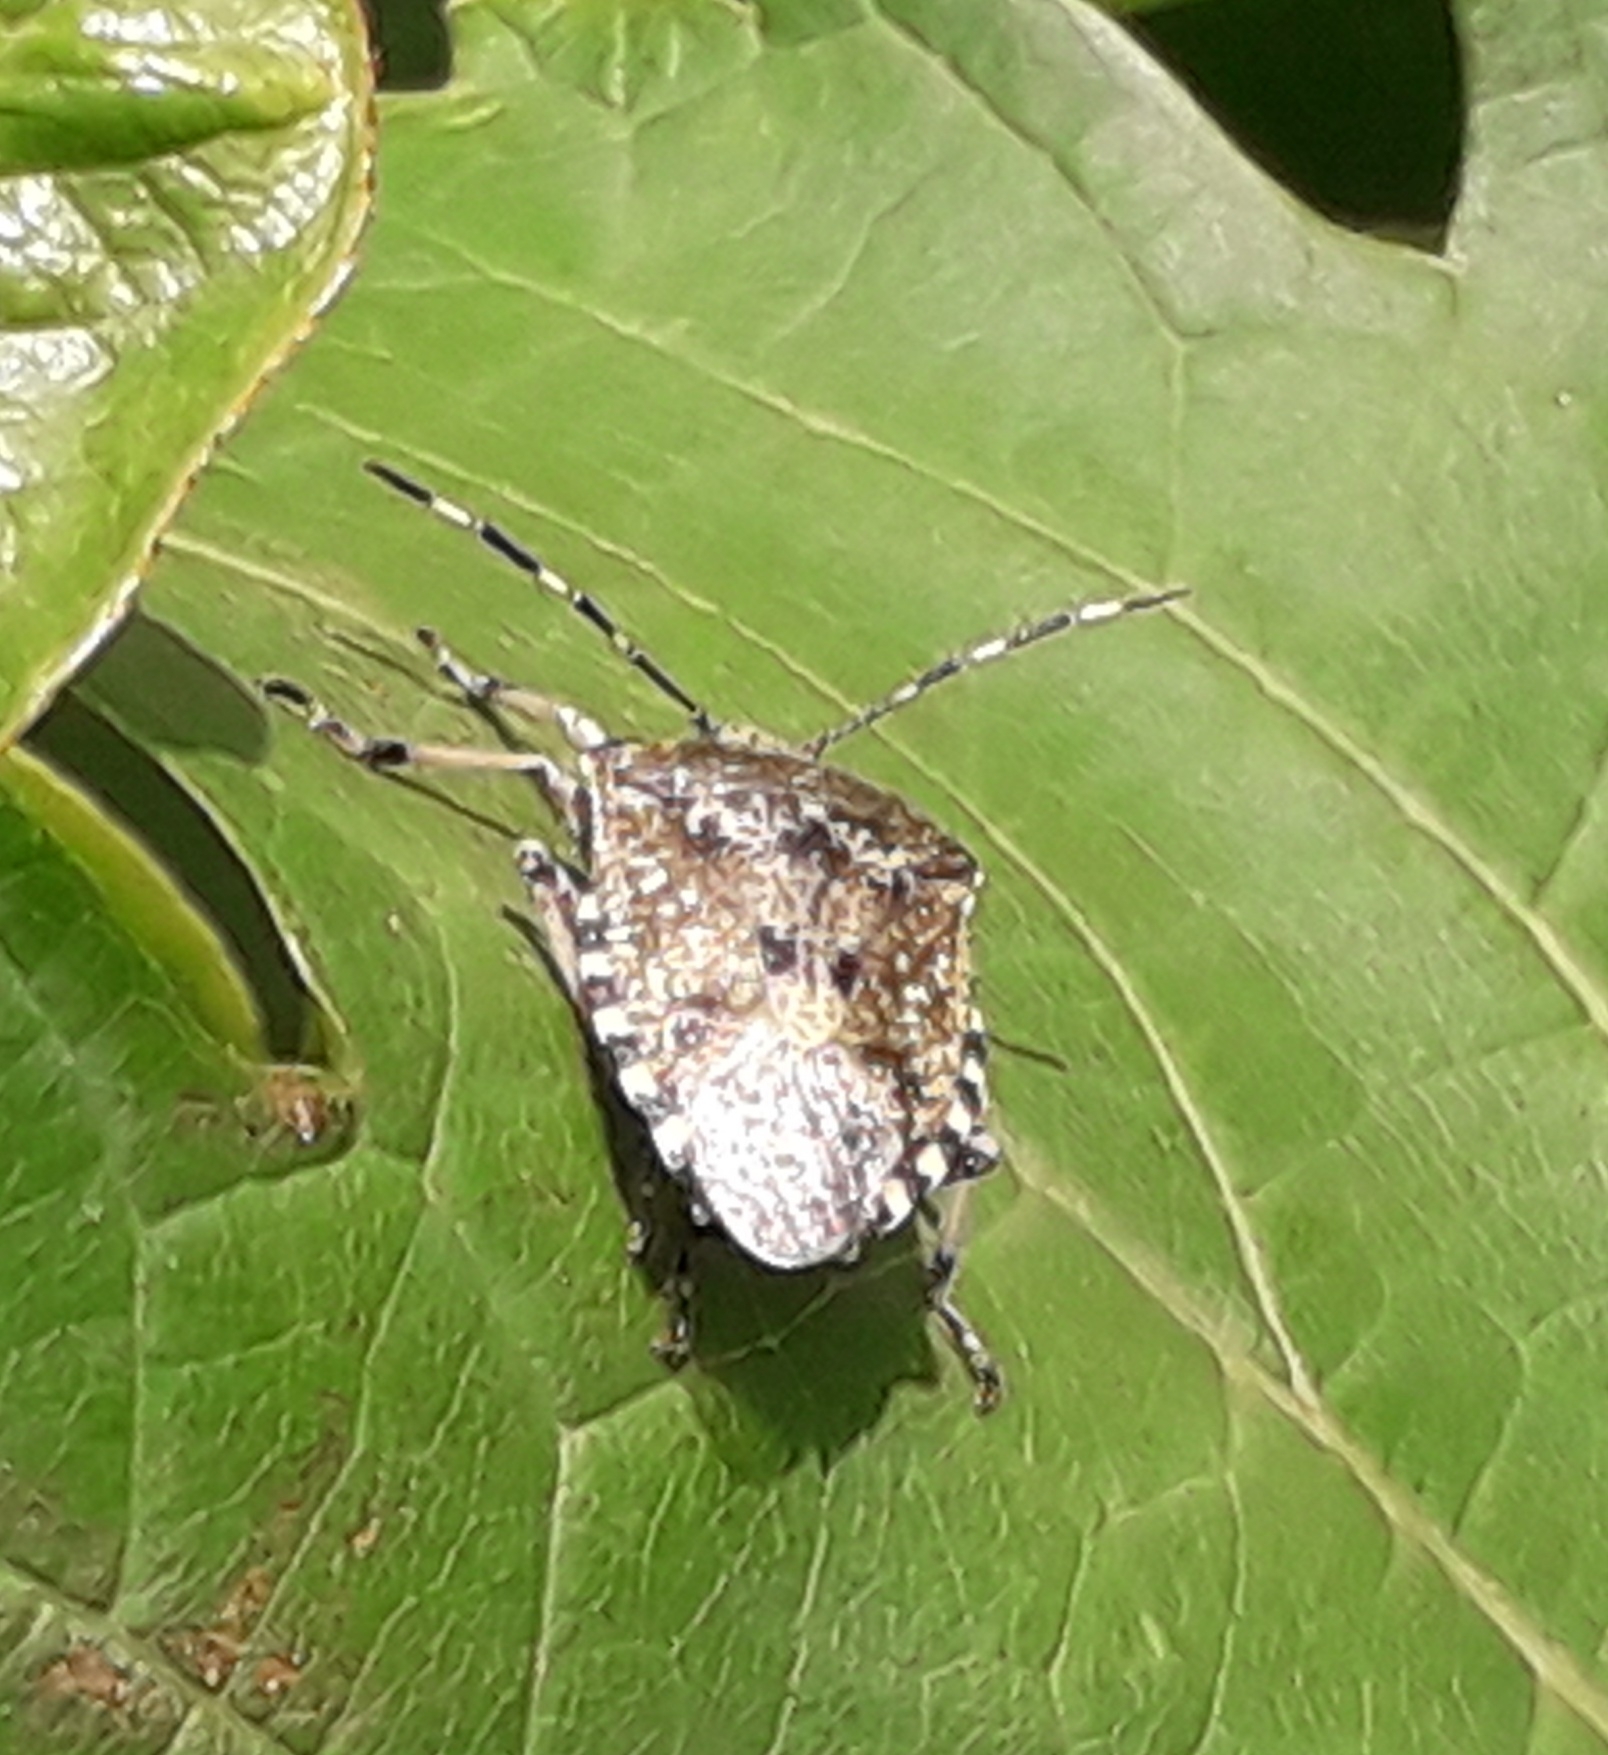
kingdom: Animalia
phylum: Arthropoda
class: Insecta
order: Hemiptera
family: Pentatomidae
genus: Rhaphigaster
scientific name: Rhaphigaster nebulosa
